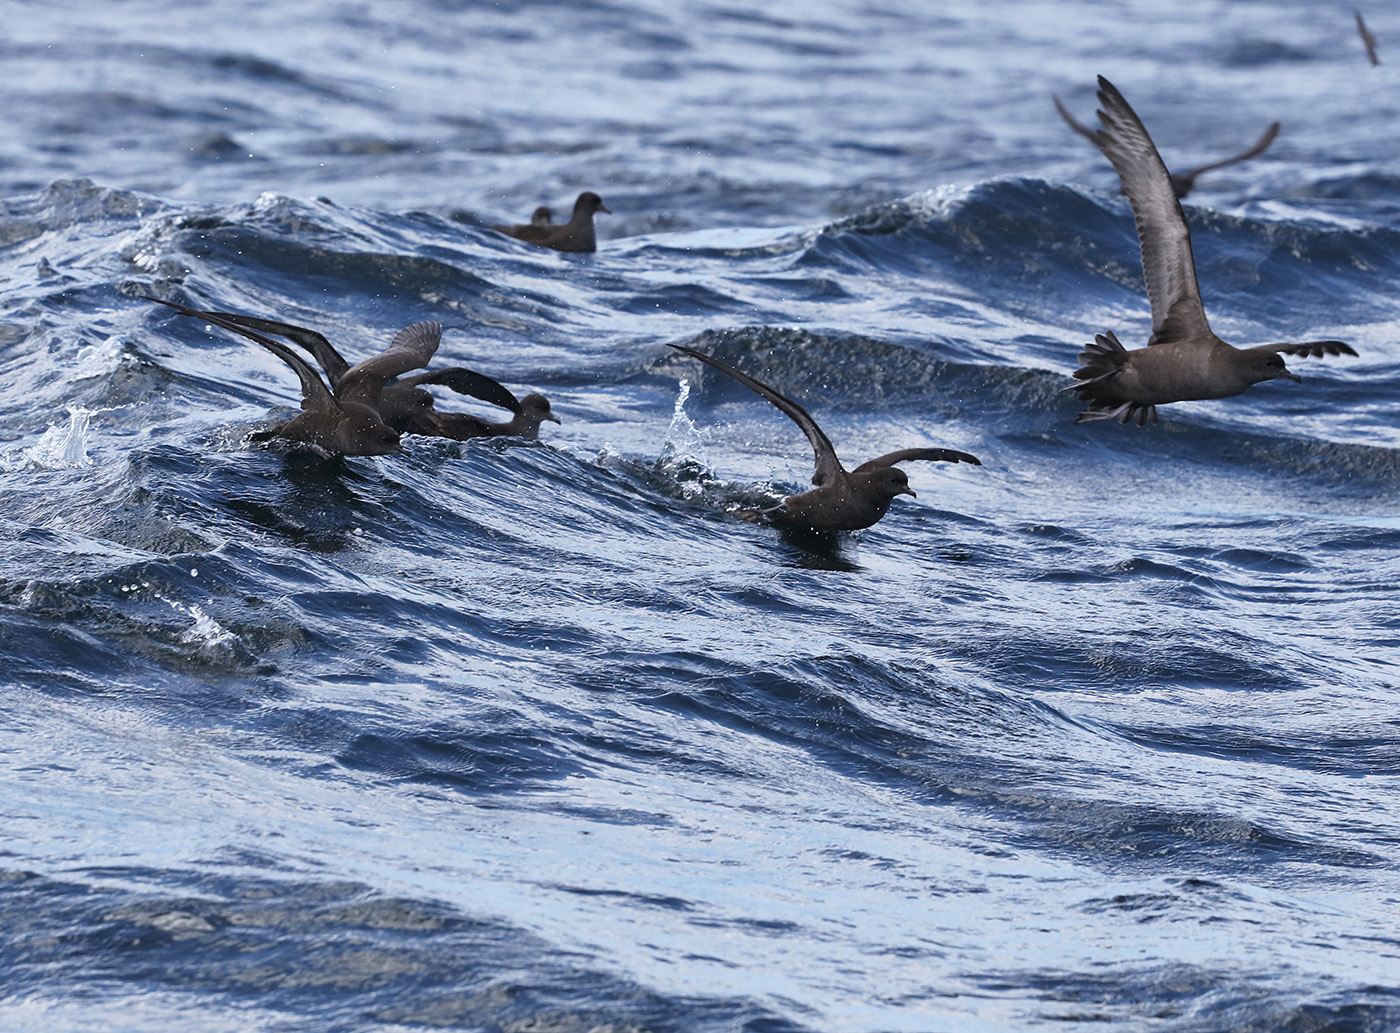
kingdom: Animalia
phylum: Chordata
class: Aves
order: Procellariiformes
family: Procellariidae
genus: Puffinus
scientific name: Puffinus tenuirostris
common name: Short-tailed shearwater
